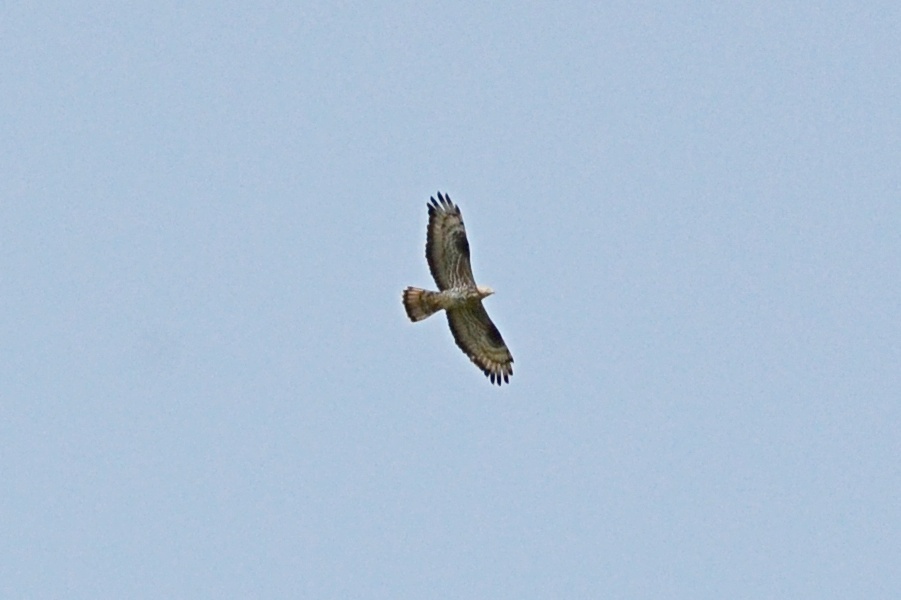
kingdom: Animalia
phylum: Chordata
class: Aves
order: Accipitriformes
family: Accipitridae
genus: Pernis
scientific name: Pernis apivorus
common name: European honey buzzard
